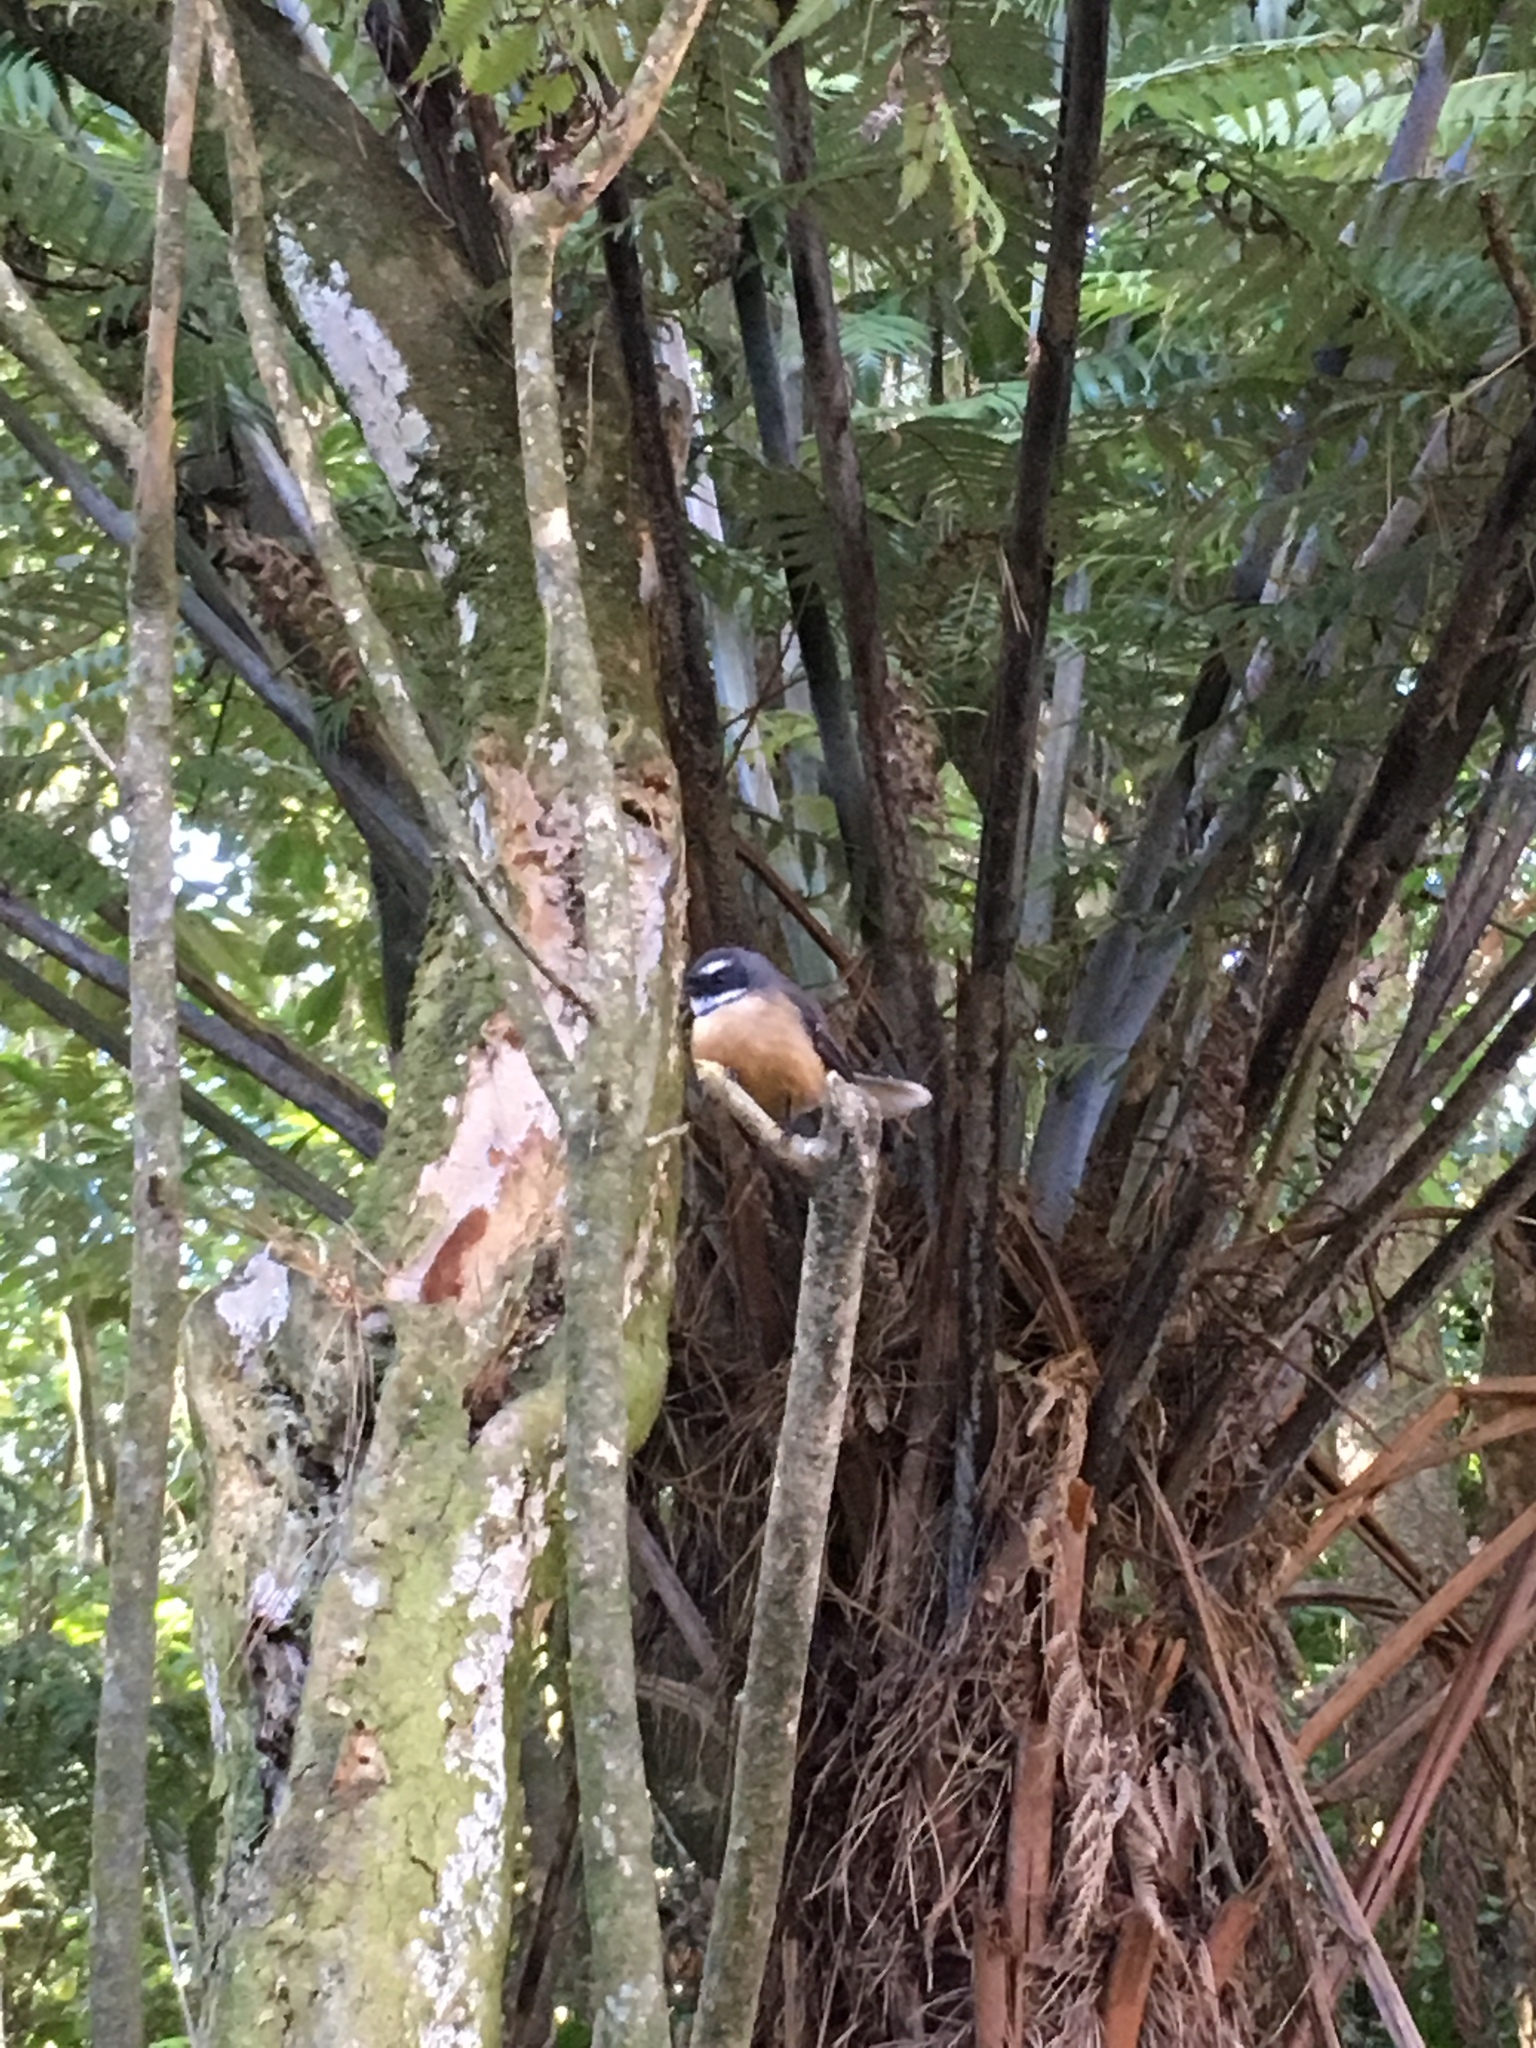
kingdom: Animalia
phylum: Chordata
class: Aves
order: Passeriformes
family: Rhipiduridae
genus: Rhipidura
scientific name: Rhipidura fuliginosa
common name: New zealand fantail
